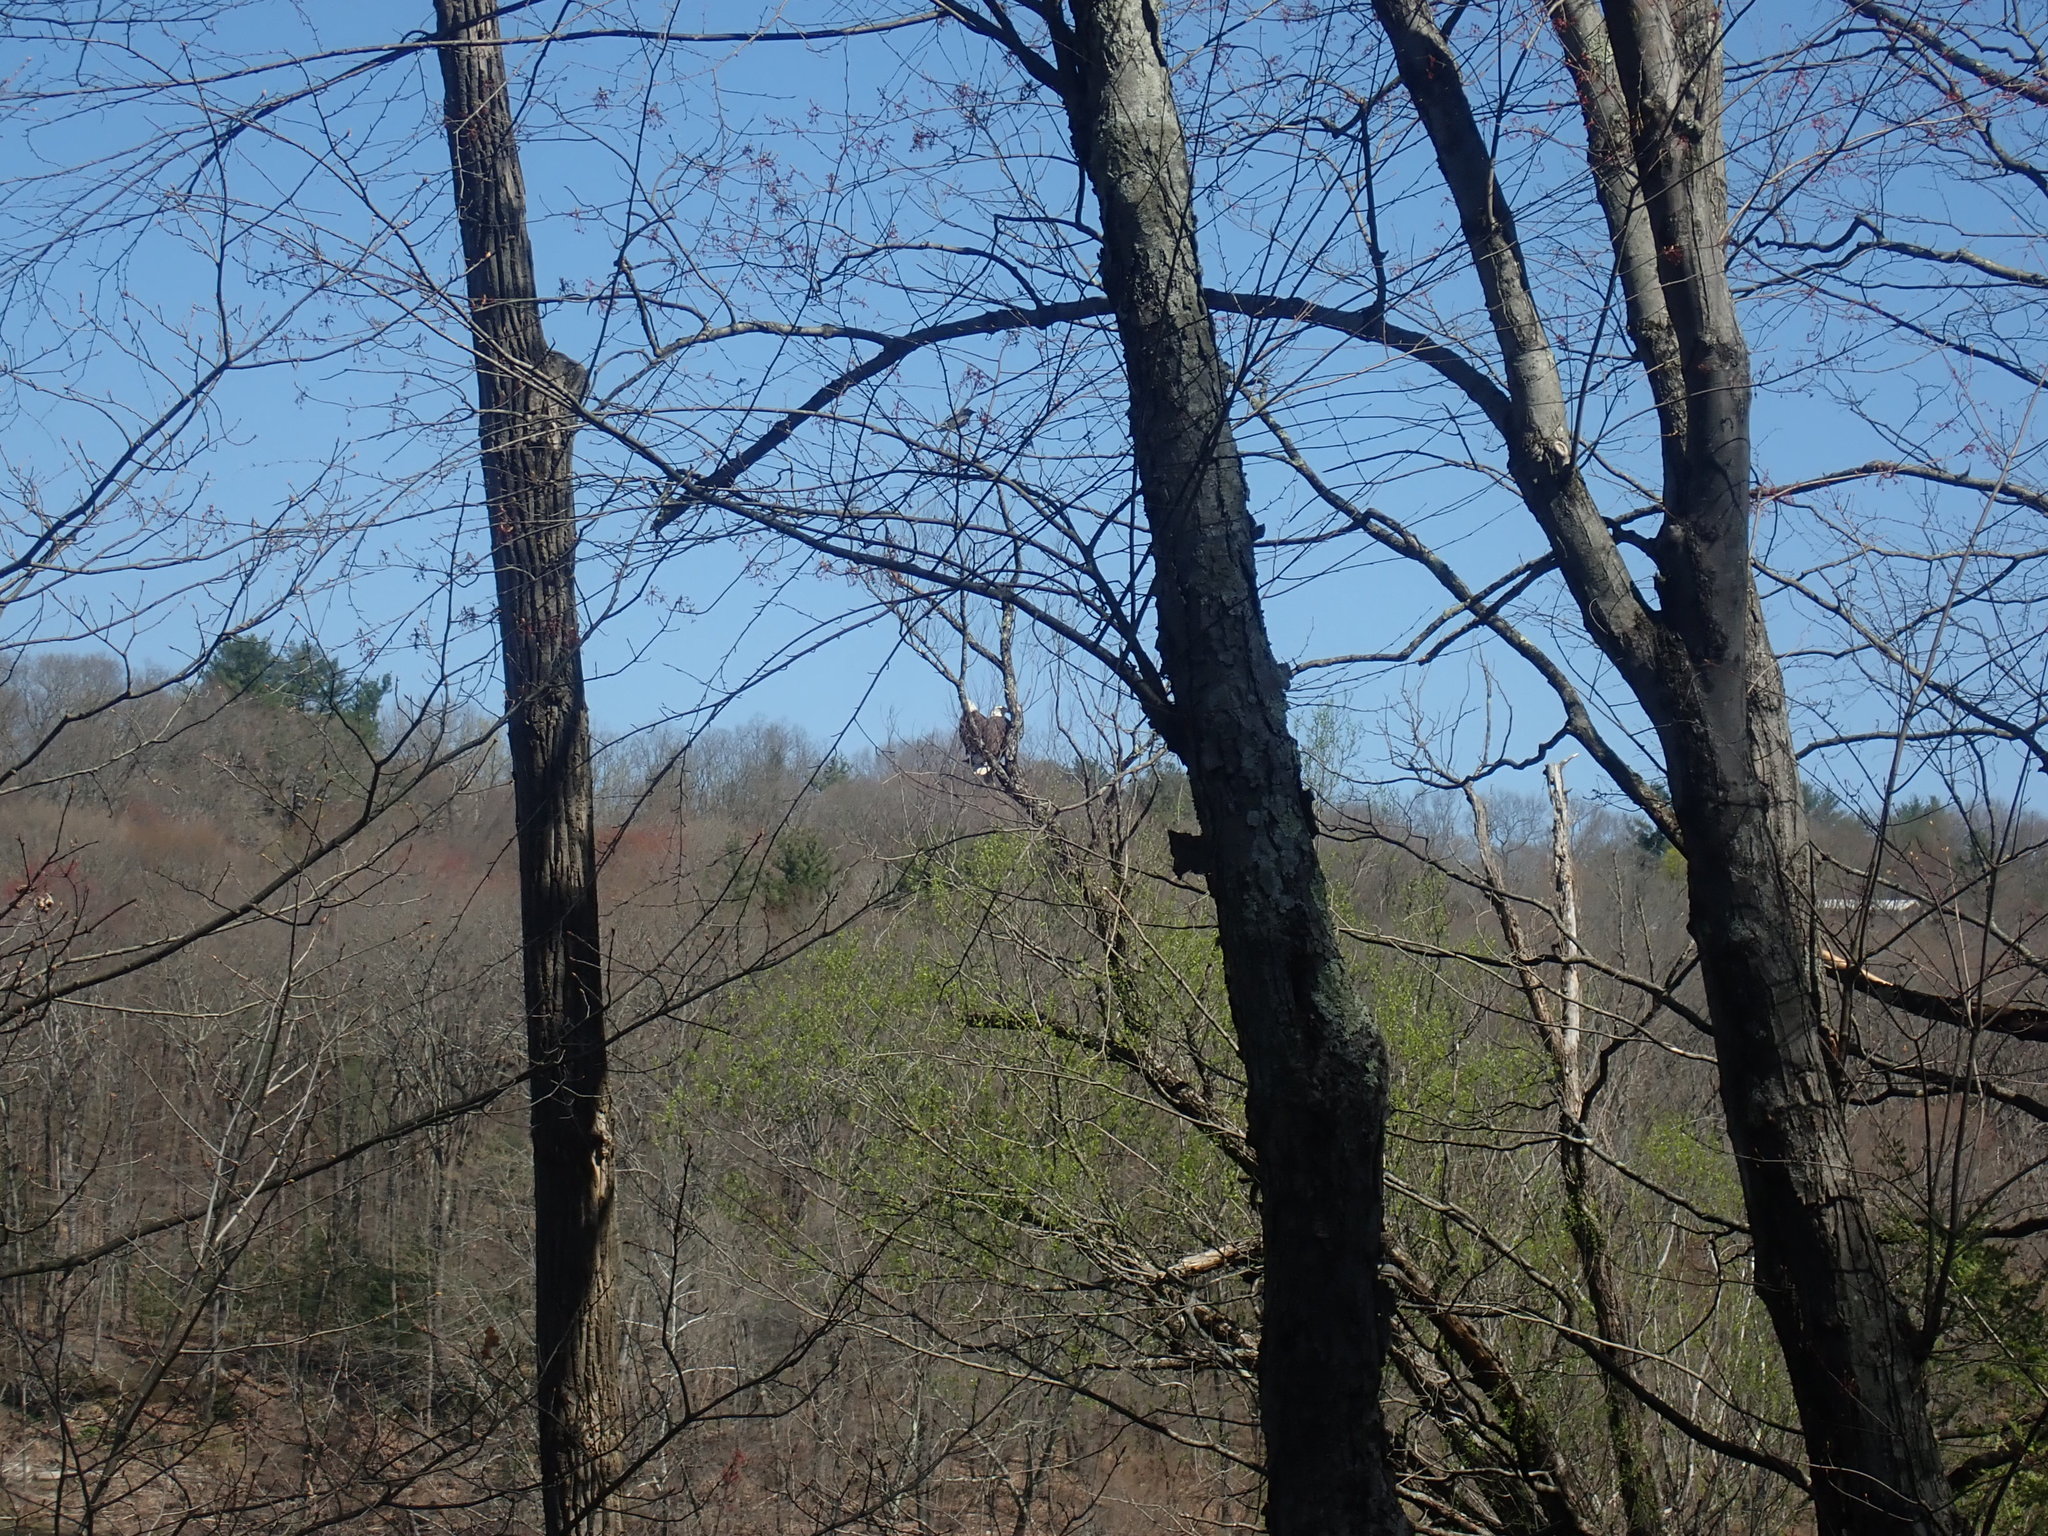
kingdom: Animalia
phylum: Chordata
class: Aves
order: Accipitriformes
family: Accipitridae
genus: Haliaeetus
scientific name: Haliaeetus leucocephalus
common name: Bald eagle
